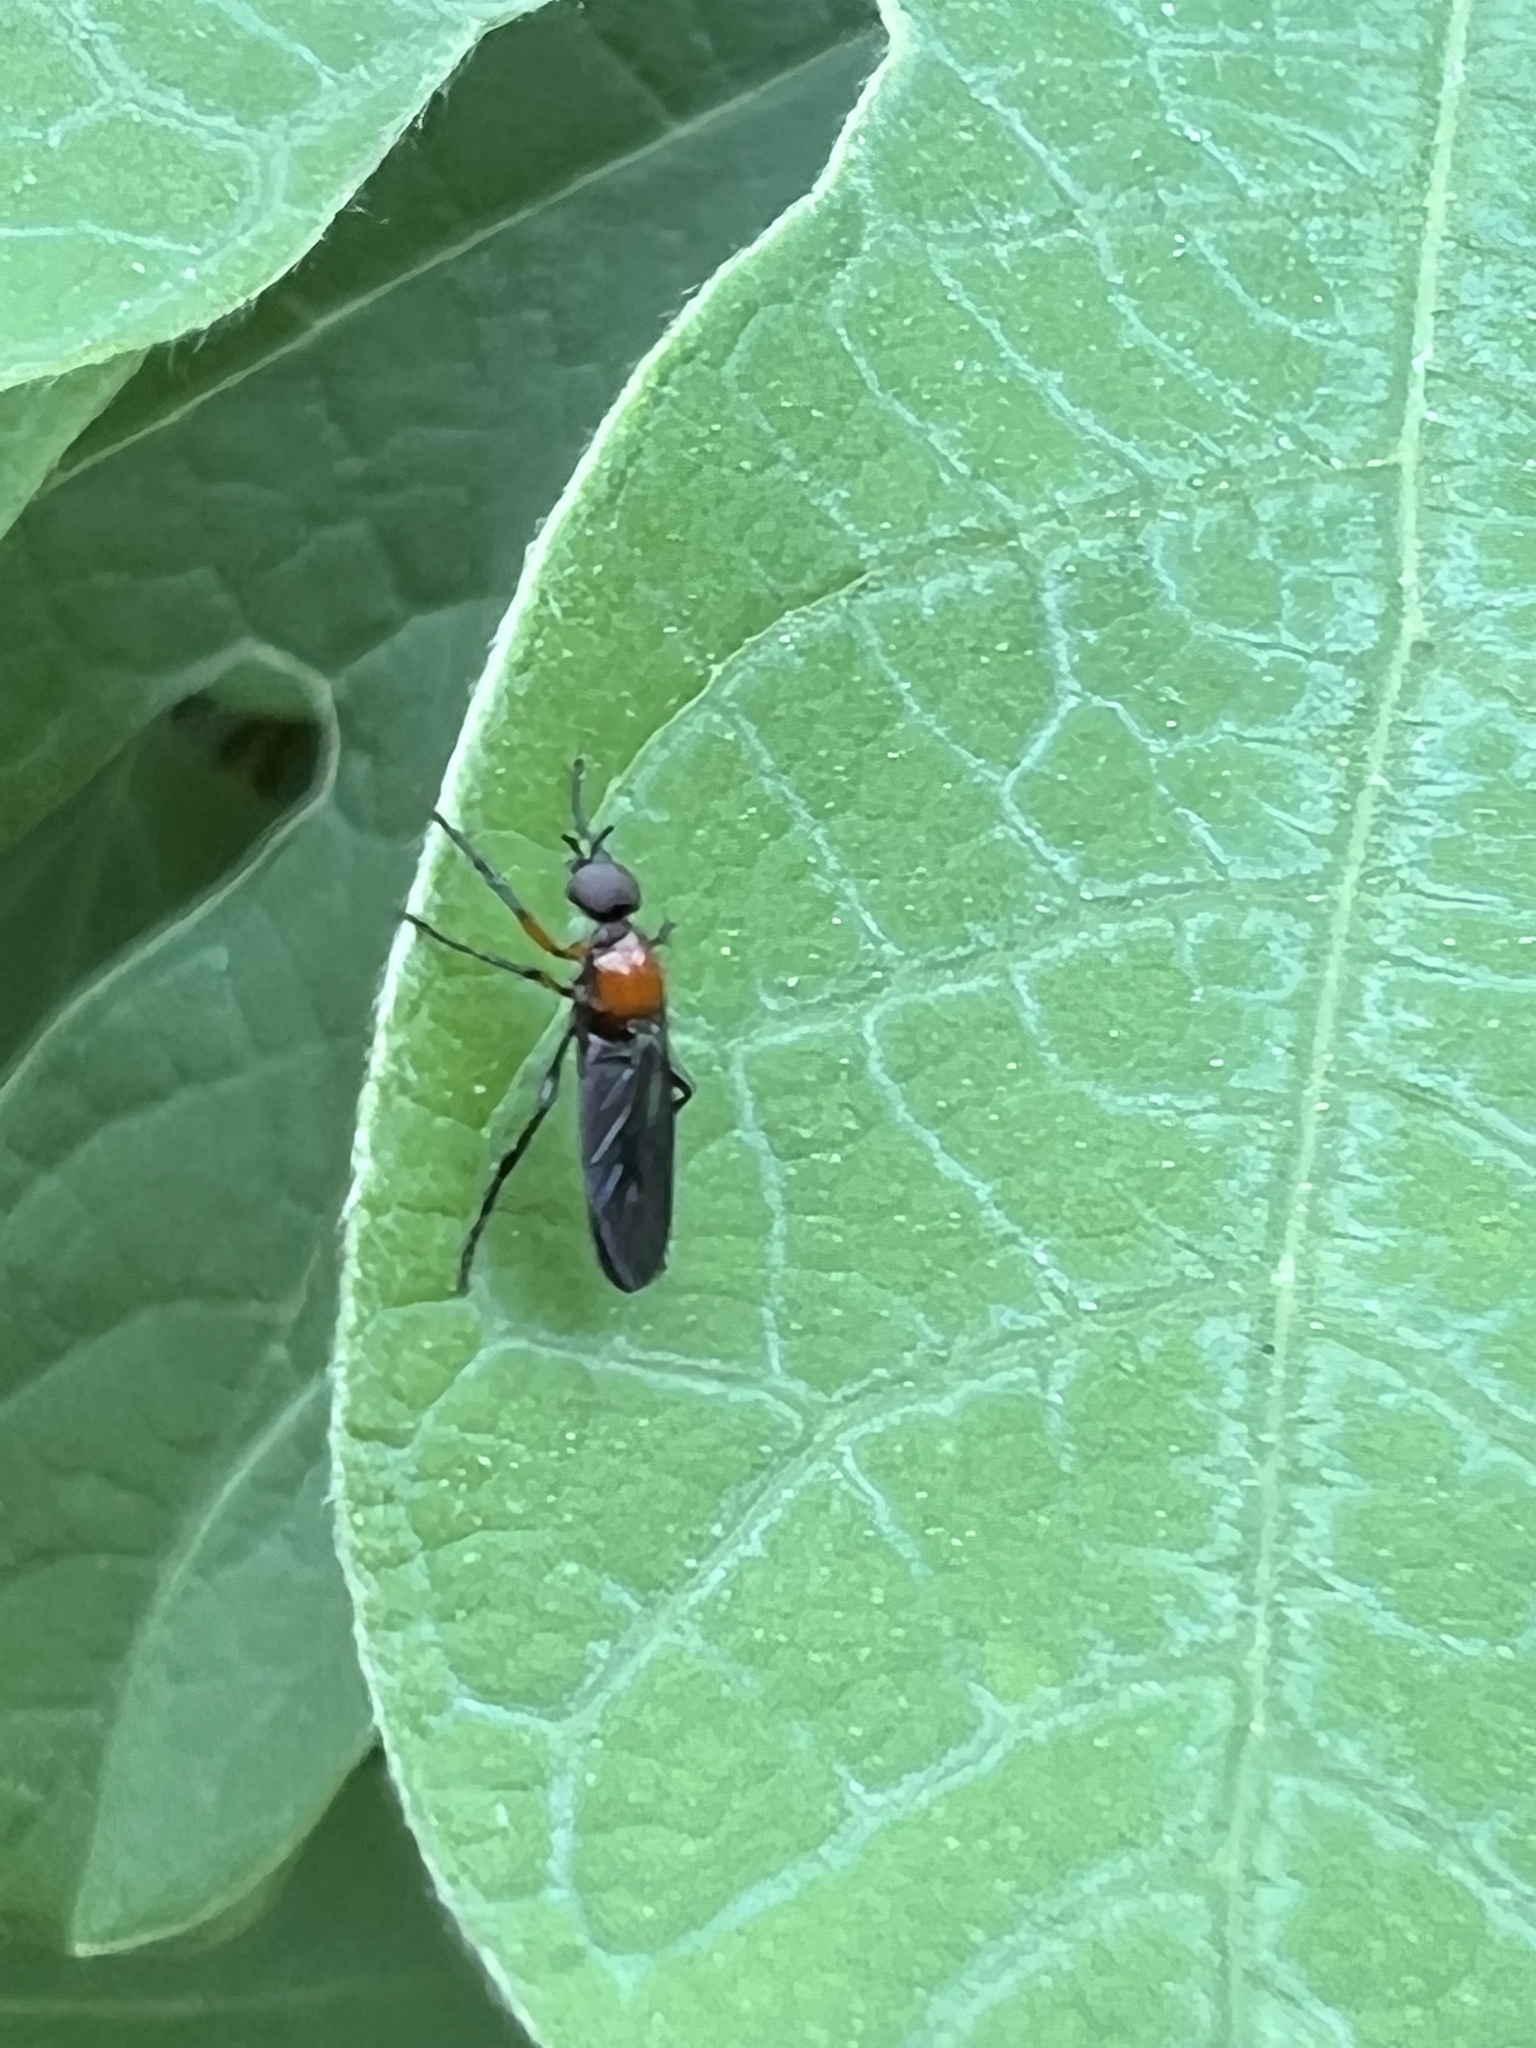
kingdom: Animalia
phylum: Arthropoda
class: Insecta
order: Diptera
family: Bibionidae
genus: Dilophus
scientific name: Dilophus spinipes
